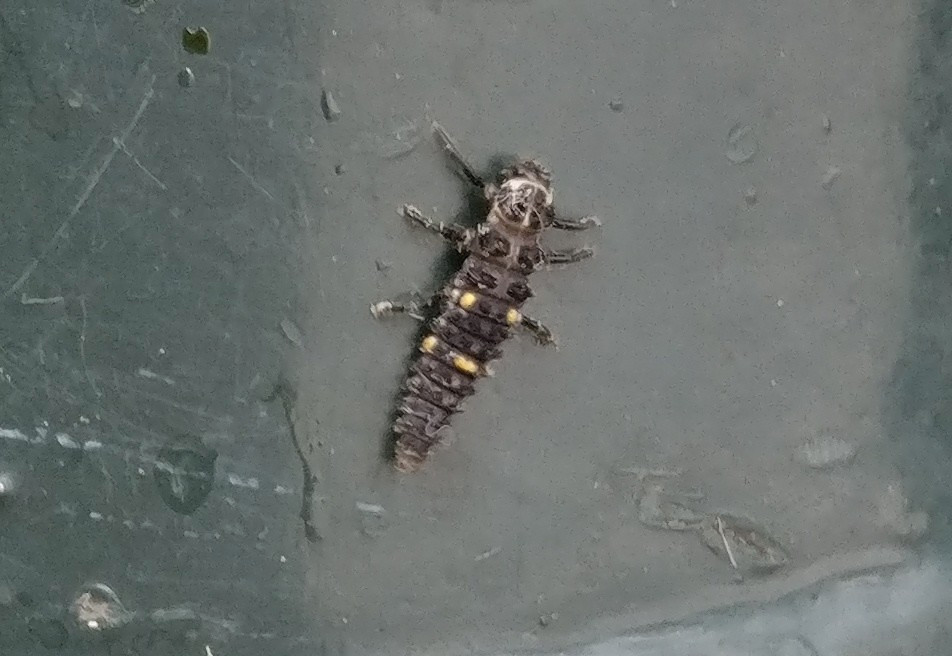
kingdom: Animalia
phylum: Arthropoda
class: Insecta
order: Coleoptera
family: Coccinellidae
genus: Adalia
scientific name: Adalia bipunctata
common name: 2-spot ladybird
